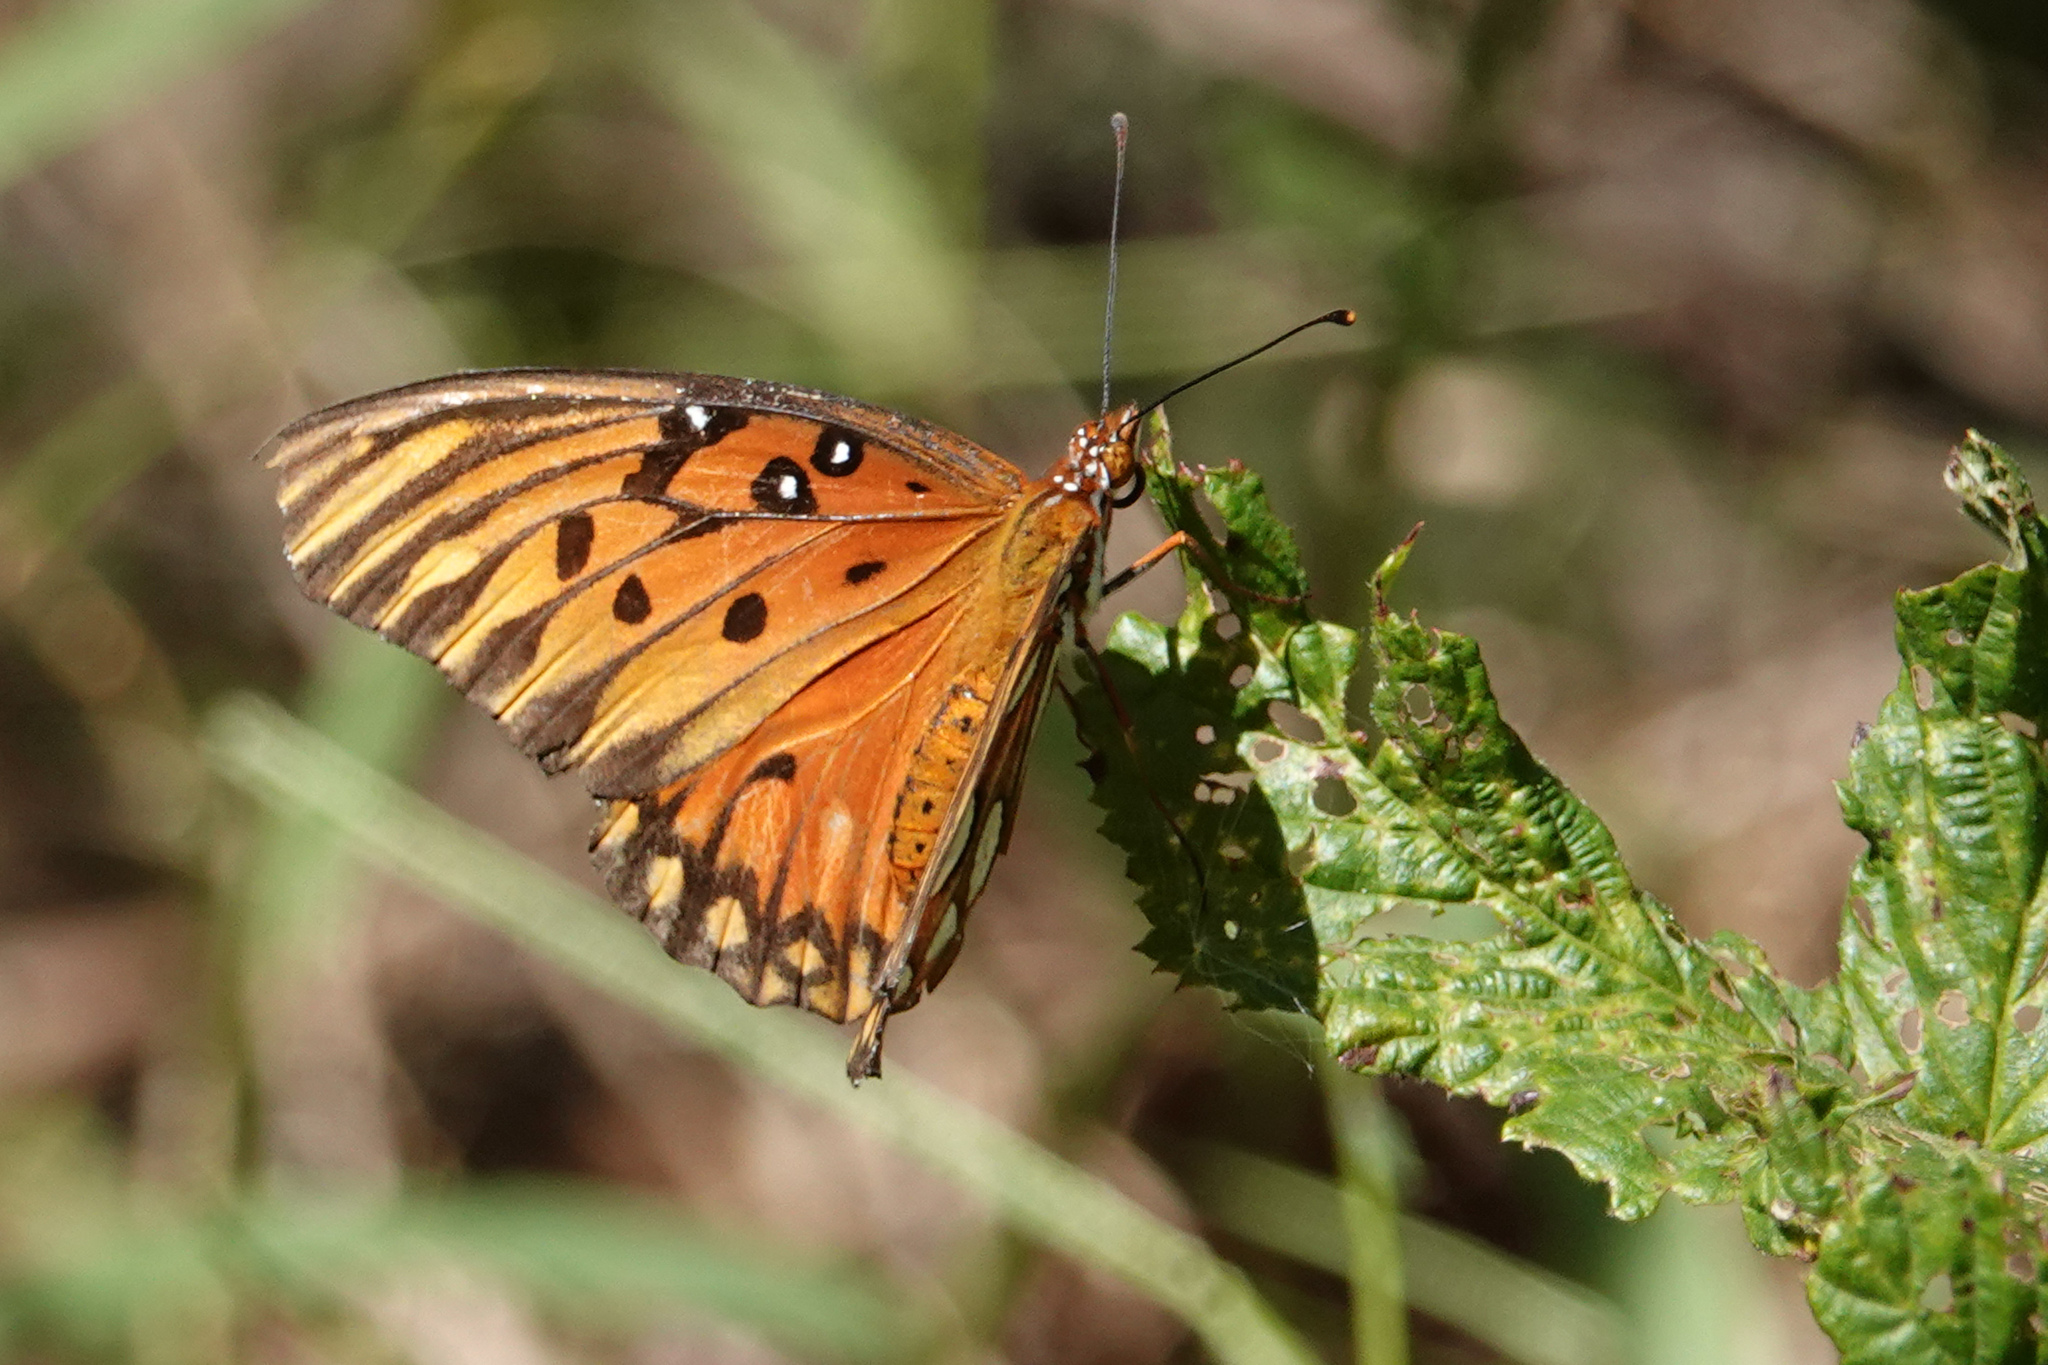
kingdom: Animalia
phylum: Arthropoda
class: Insecta
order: Lepidoptera
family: Nymphalidae
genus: Dione
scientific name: Dione vanillae
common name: Gulf fritillary
